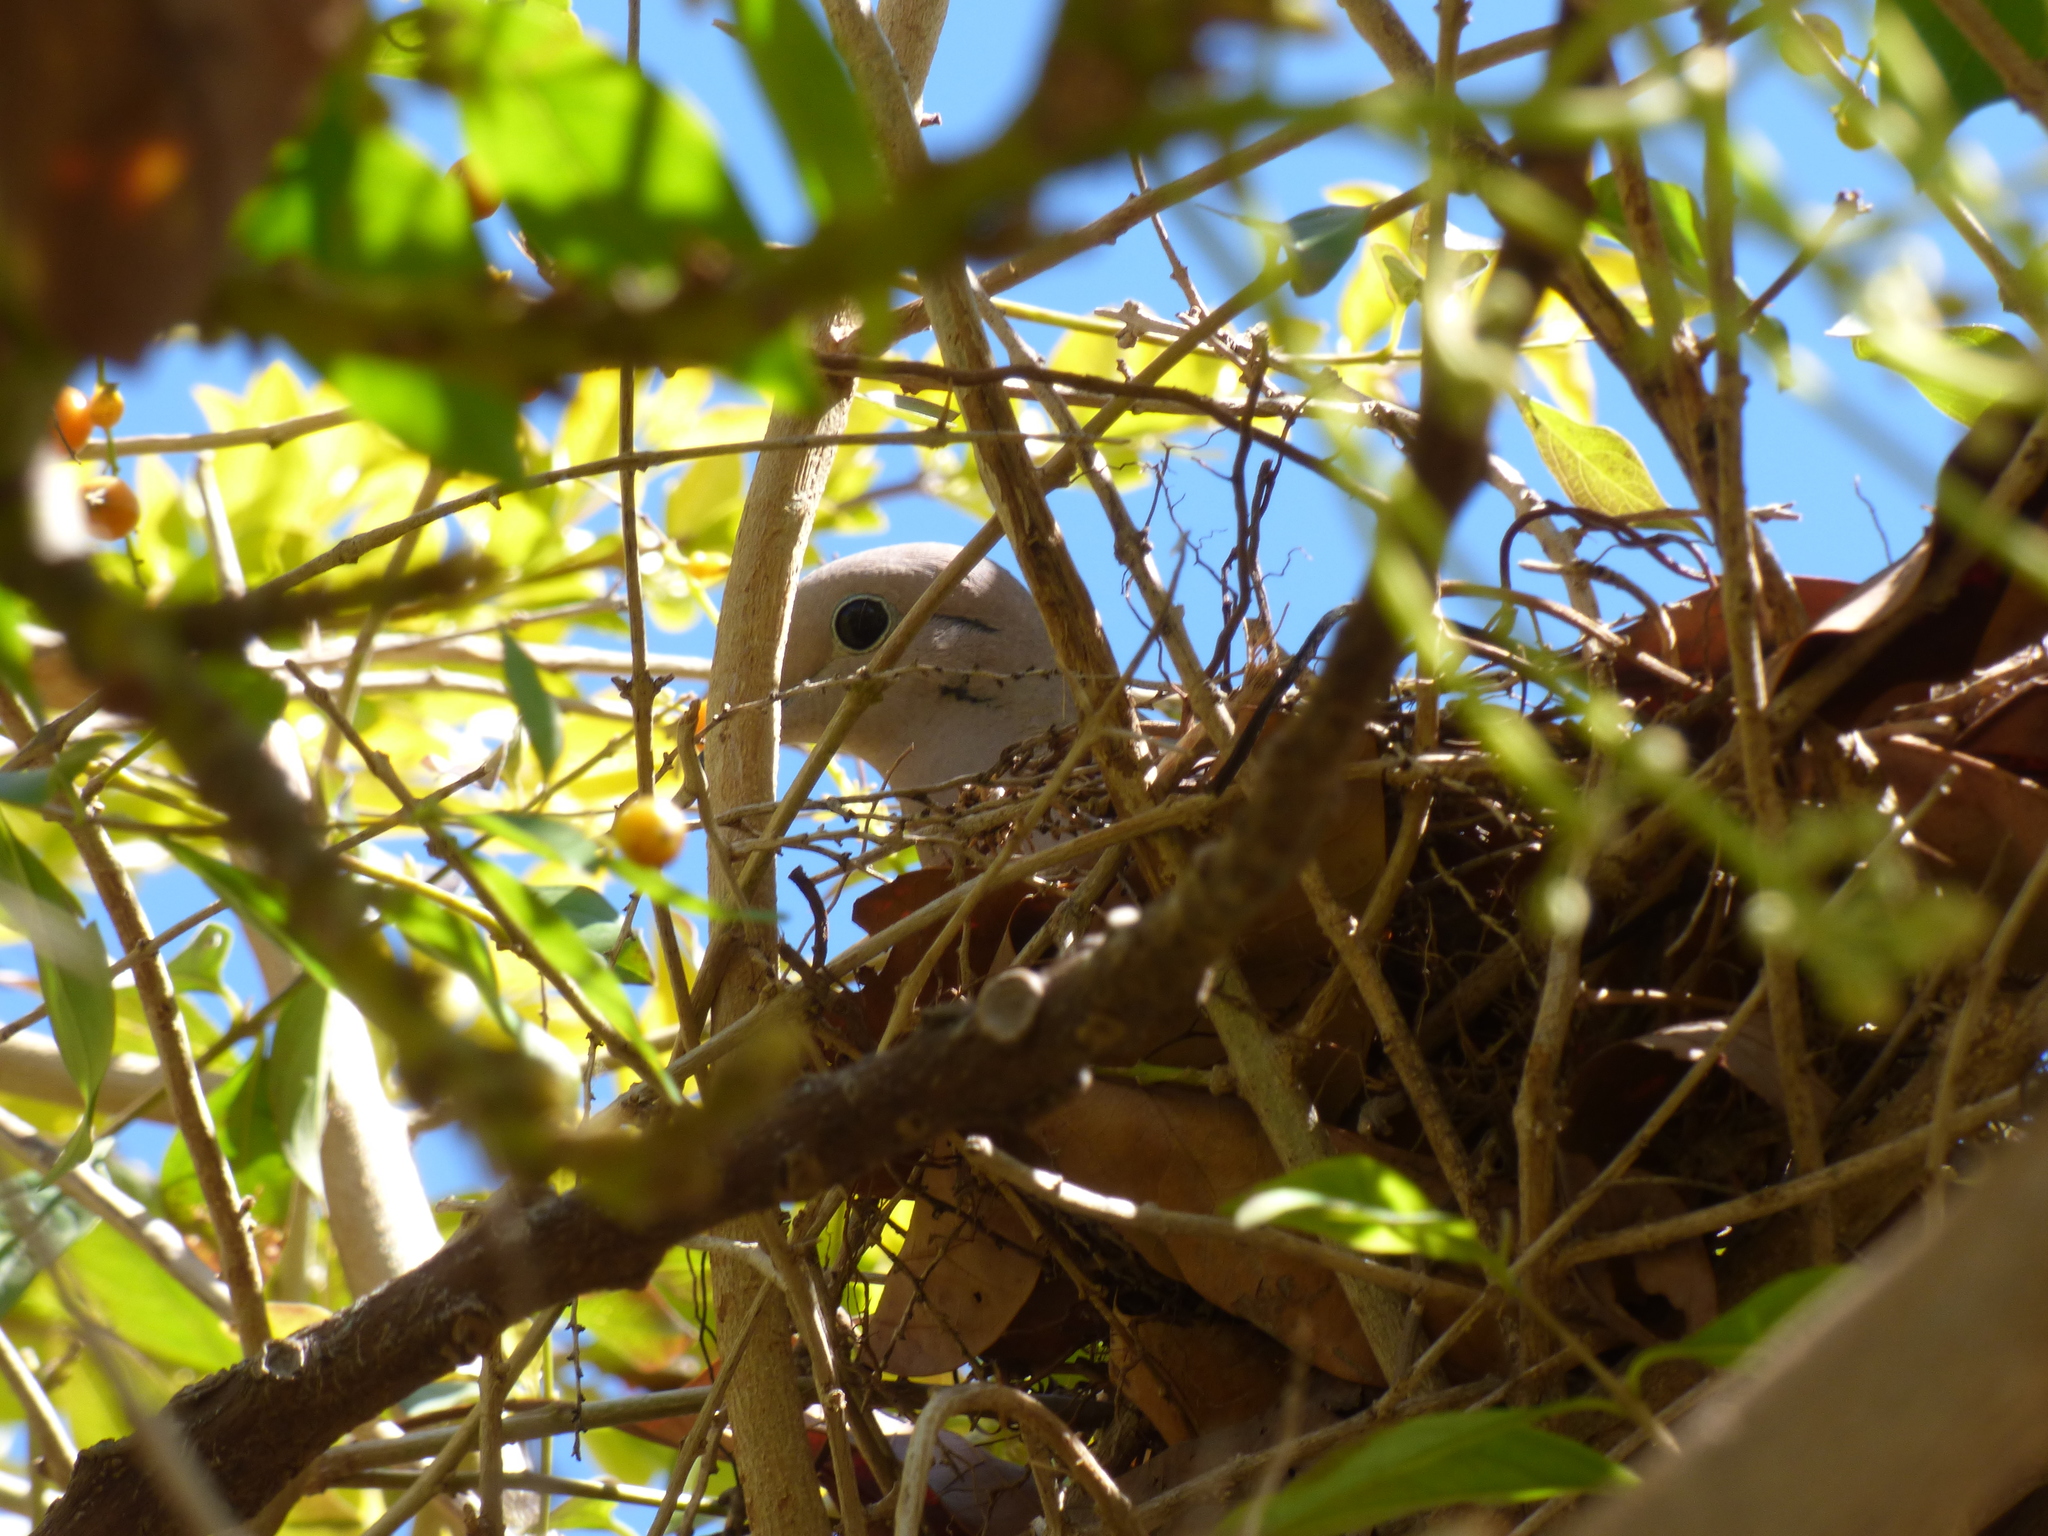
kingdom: Animalia
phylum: Chordata
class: Aves
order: Columbiformes
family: Columbidae
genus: Zenaida
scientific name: Zenaida auriculata
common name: Eared dove
